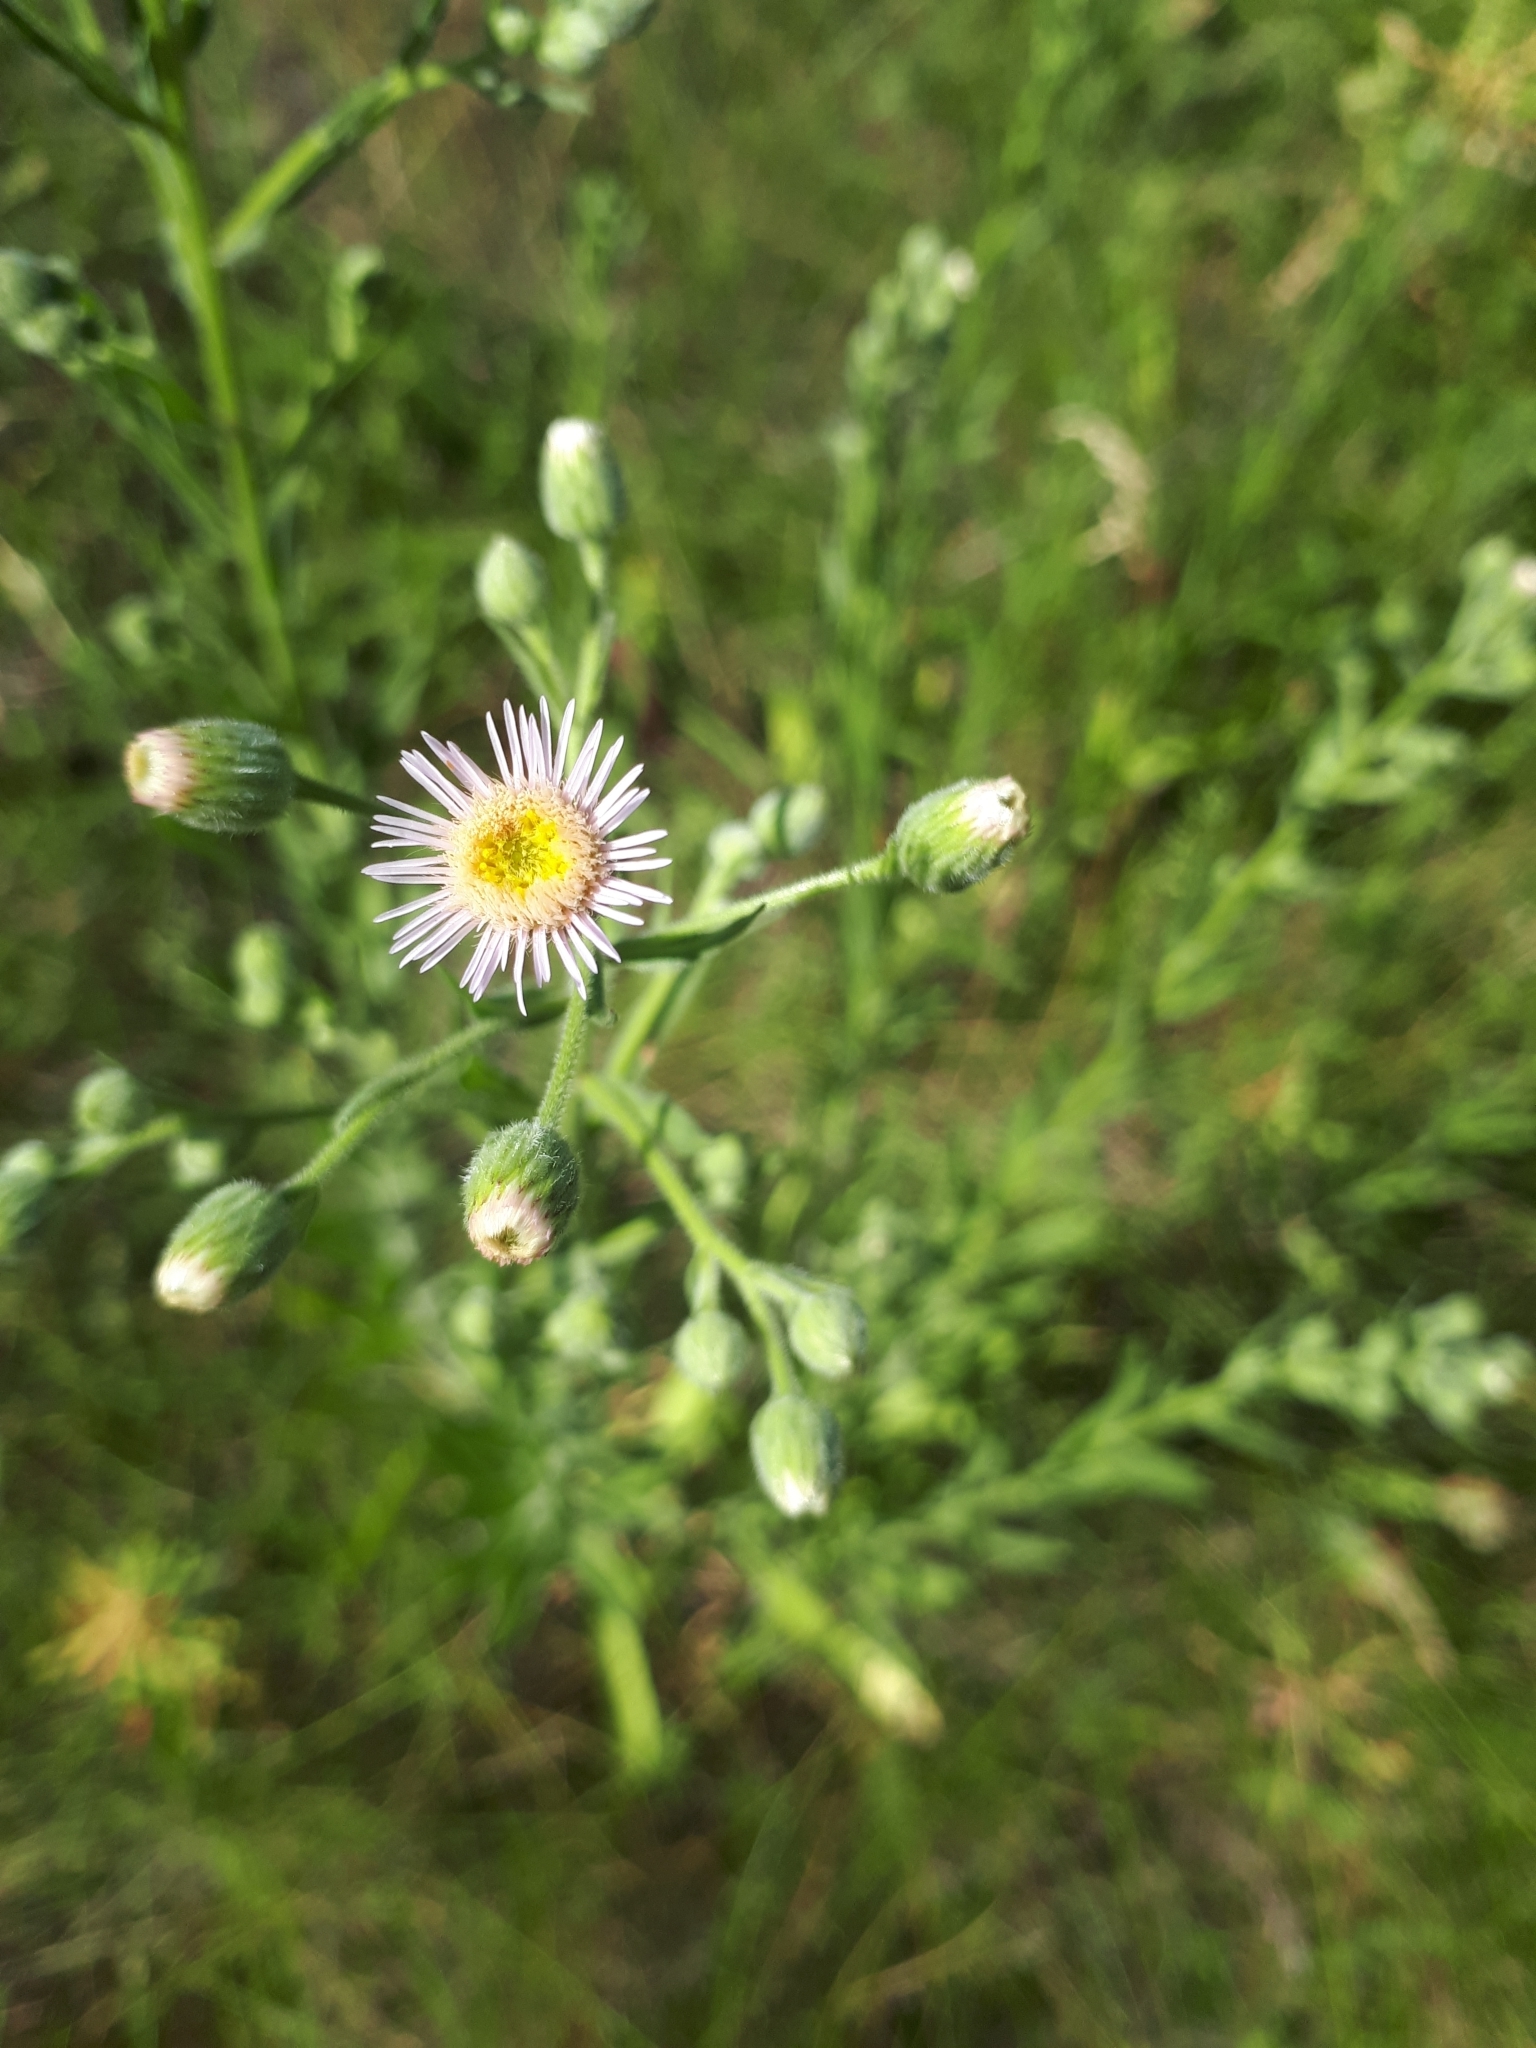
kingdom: Plantae
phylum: Tracheophyta
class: Magnoliopsida
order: Asterales
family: Asteraceae
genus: Erigeron
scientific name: Erigeron acris
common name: Blue fleabane
